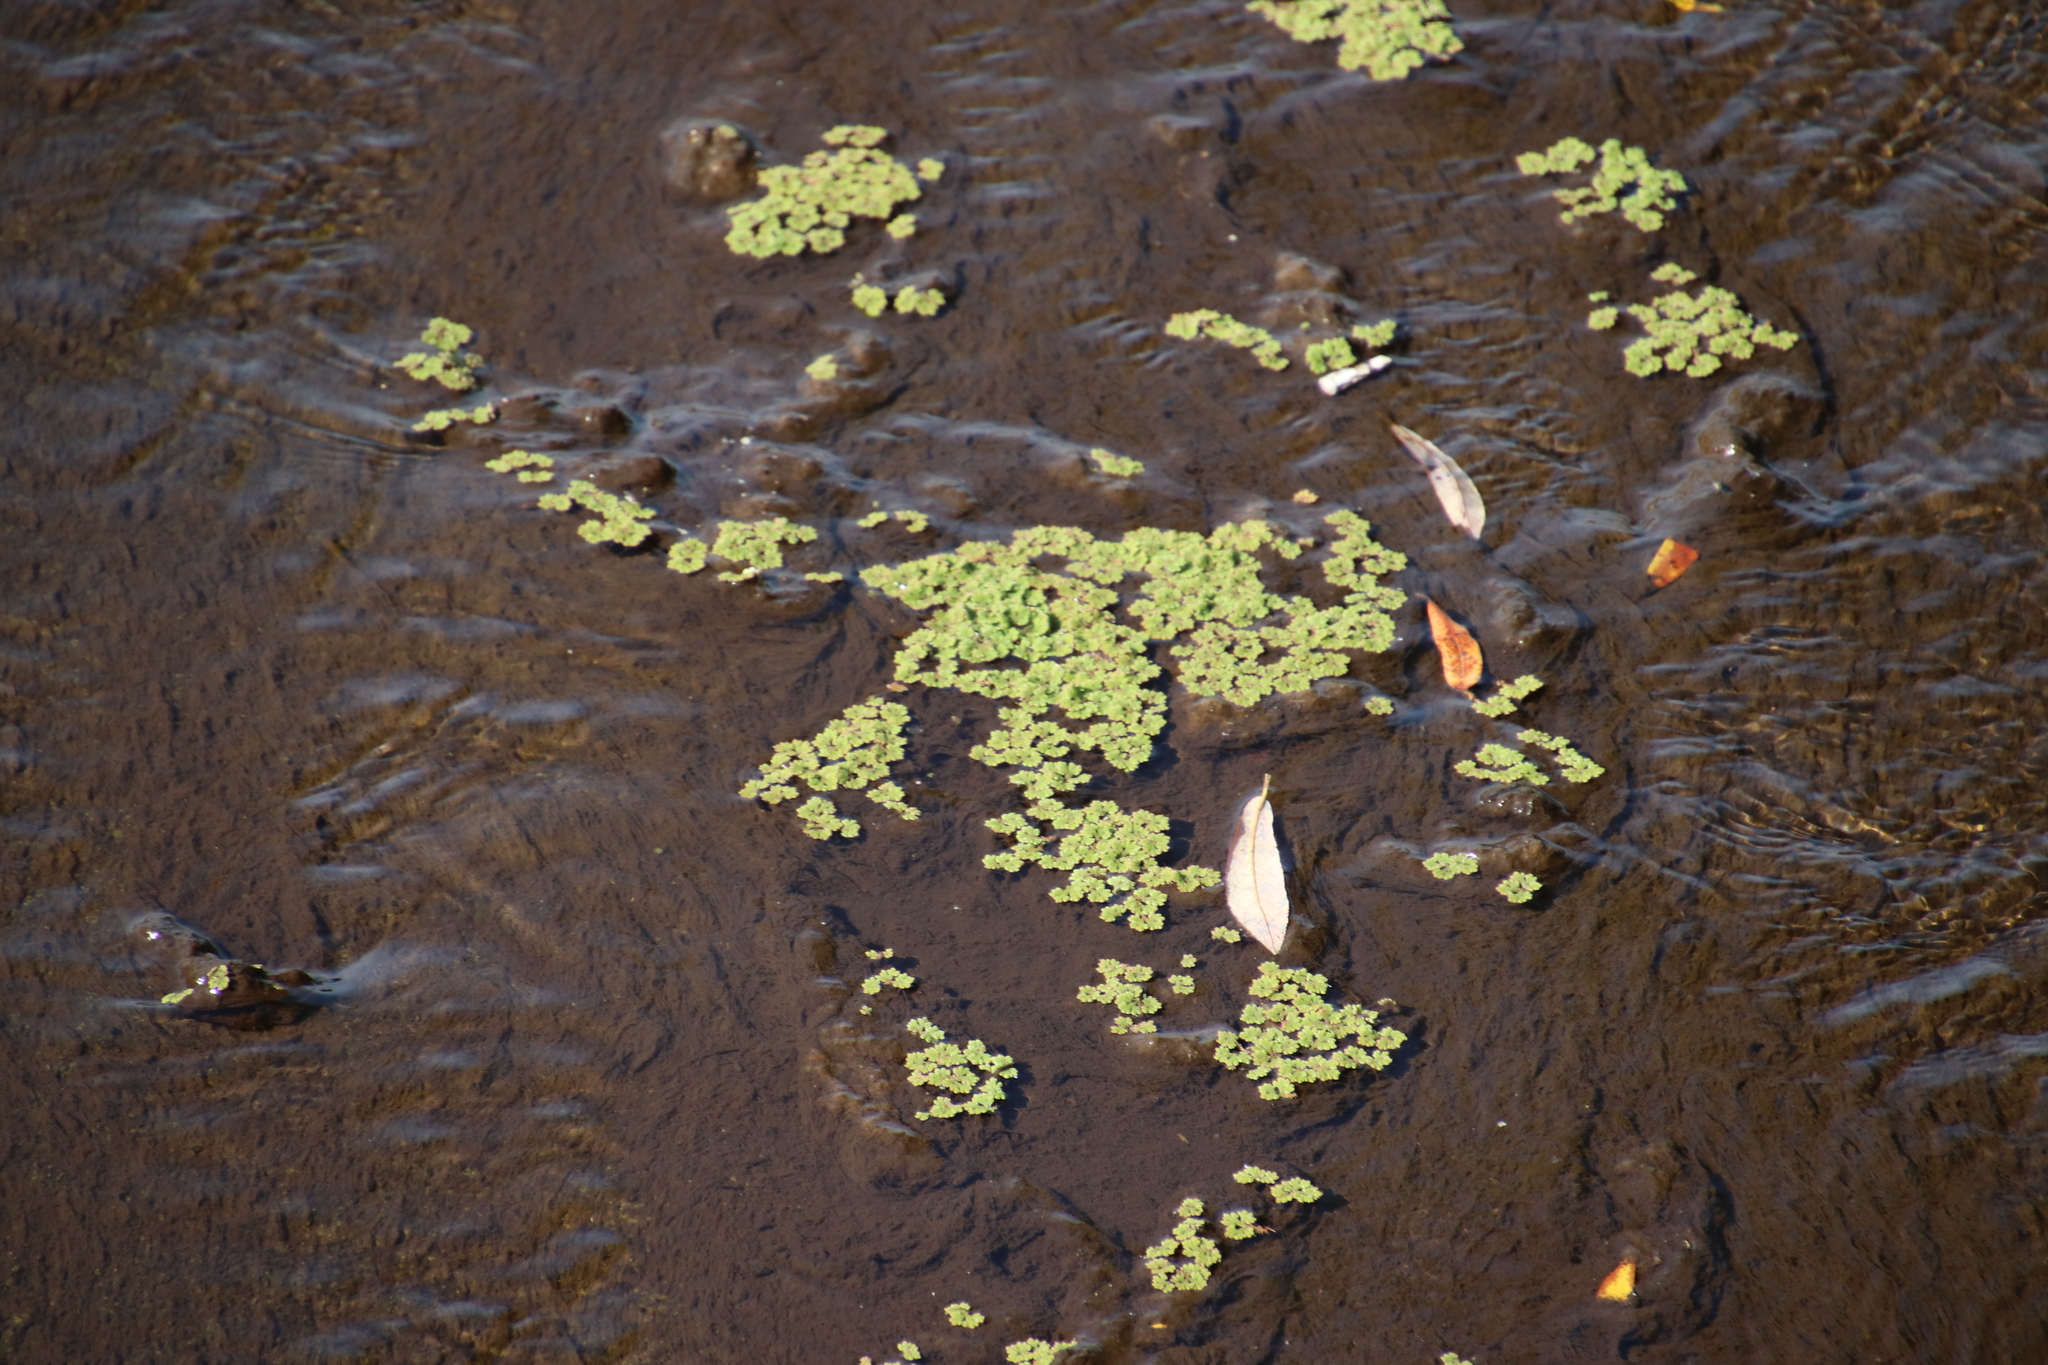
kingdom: Plantae
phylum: Tracheophyta
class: Polypodiopsida
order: Salviniales
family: Salviniaceae
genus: Azolla
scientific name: Azolla filiculoides
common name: Water fern
